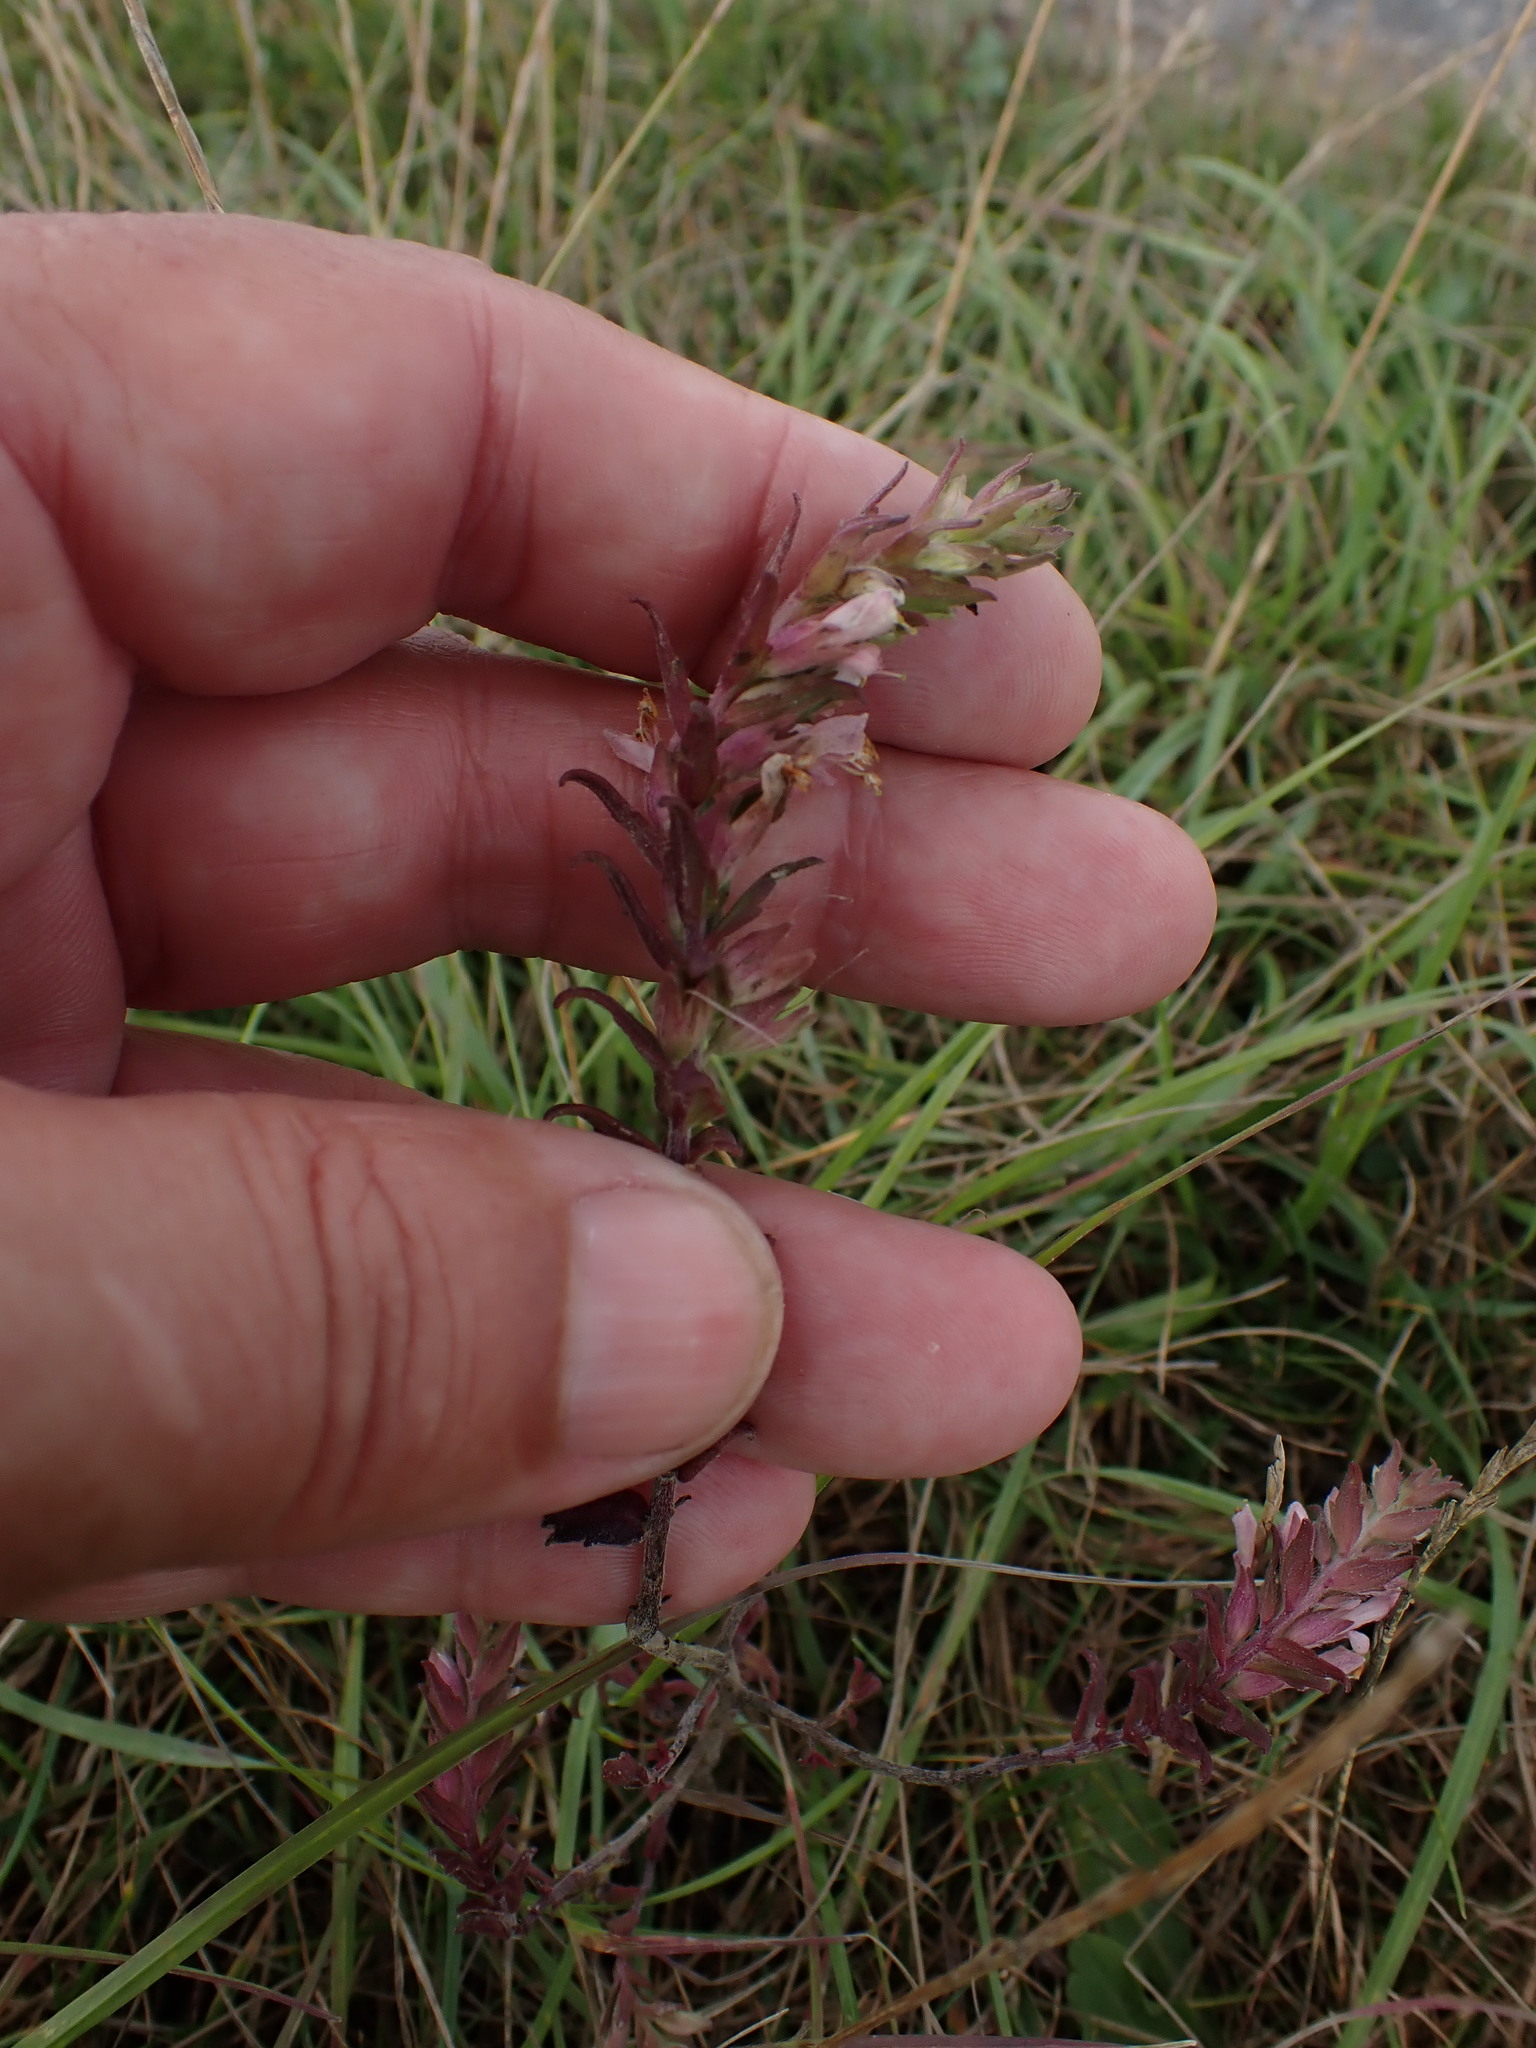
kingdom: Plantae
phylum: Tracheophyta
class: Magnoliopsida
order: Lamiales
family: Orobanchaceae
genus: Odontites
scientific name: Odontites vulgaris
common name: Broomrape
